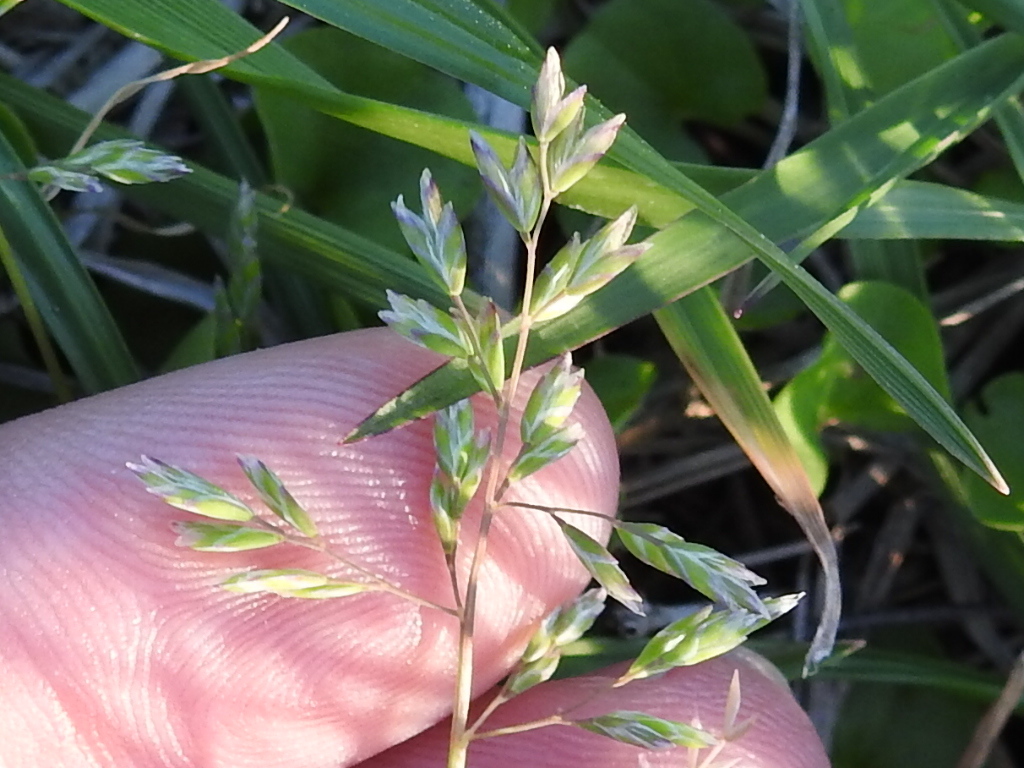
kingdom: Plantae
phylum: Tracheophyta
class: Liliopsida
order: Poales
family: Poaceae
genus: Poa
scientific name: Poa annua
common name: Annual bluegrass
